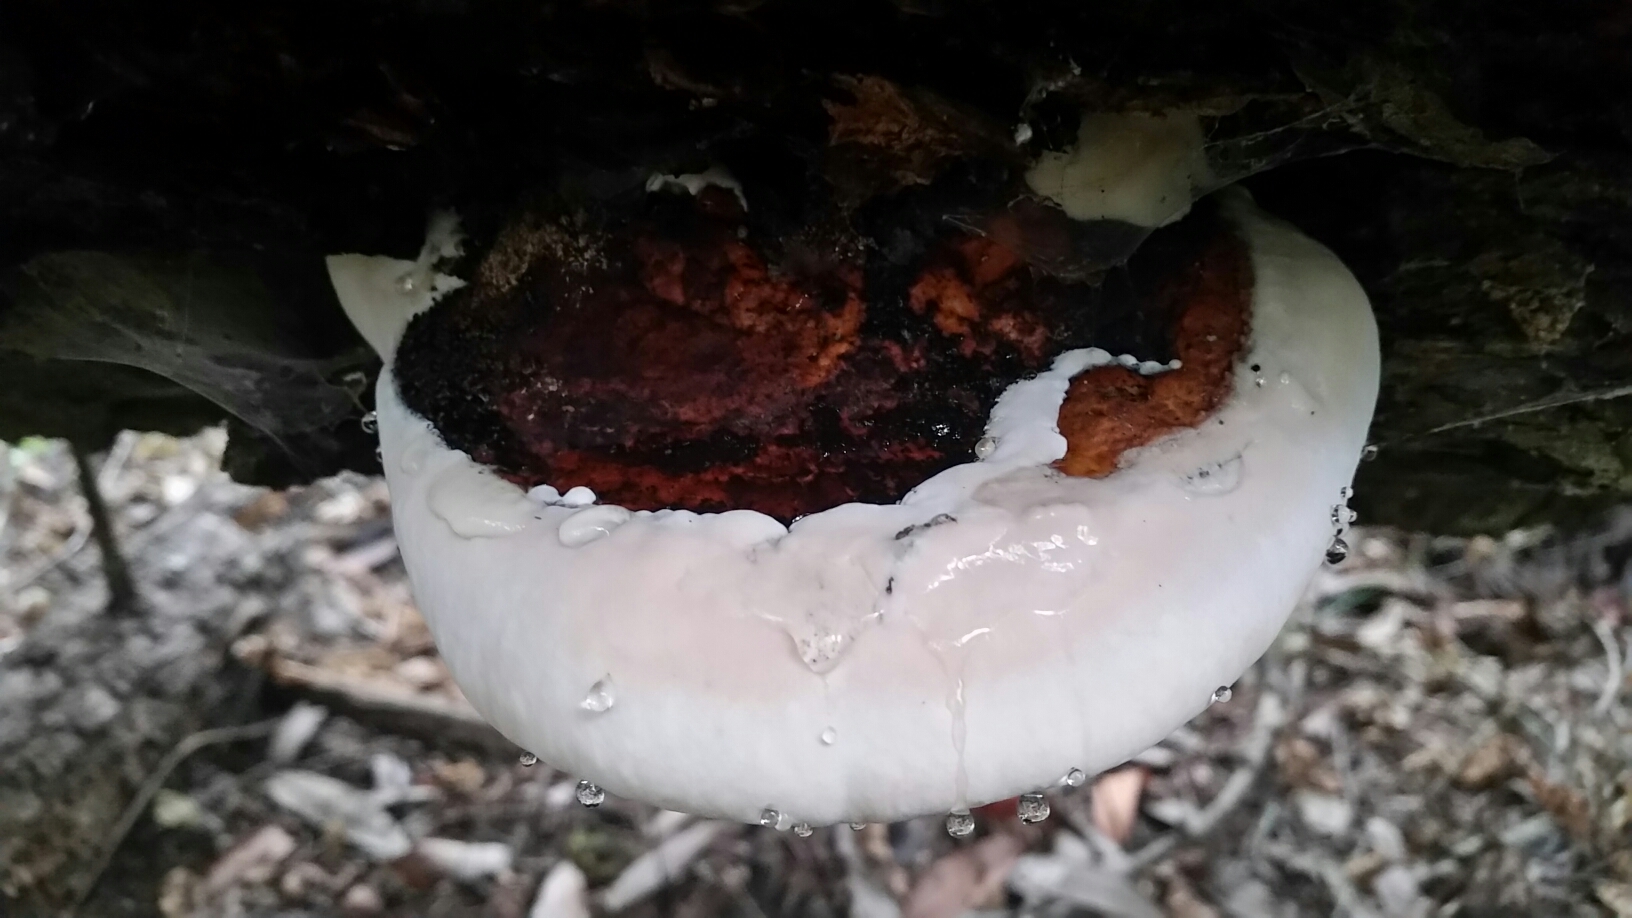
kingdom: Fungi
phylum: Basidiomycota
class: Agaricomycetes
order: Polyporales
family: Fomitopsidaceae
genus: Fomitopsis
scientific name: Fomitopsis mounceae
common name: Northern red belt
